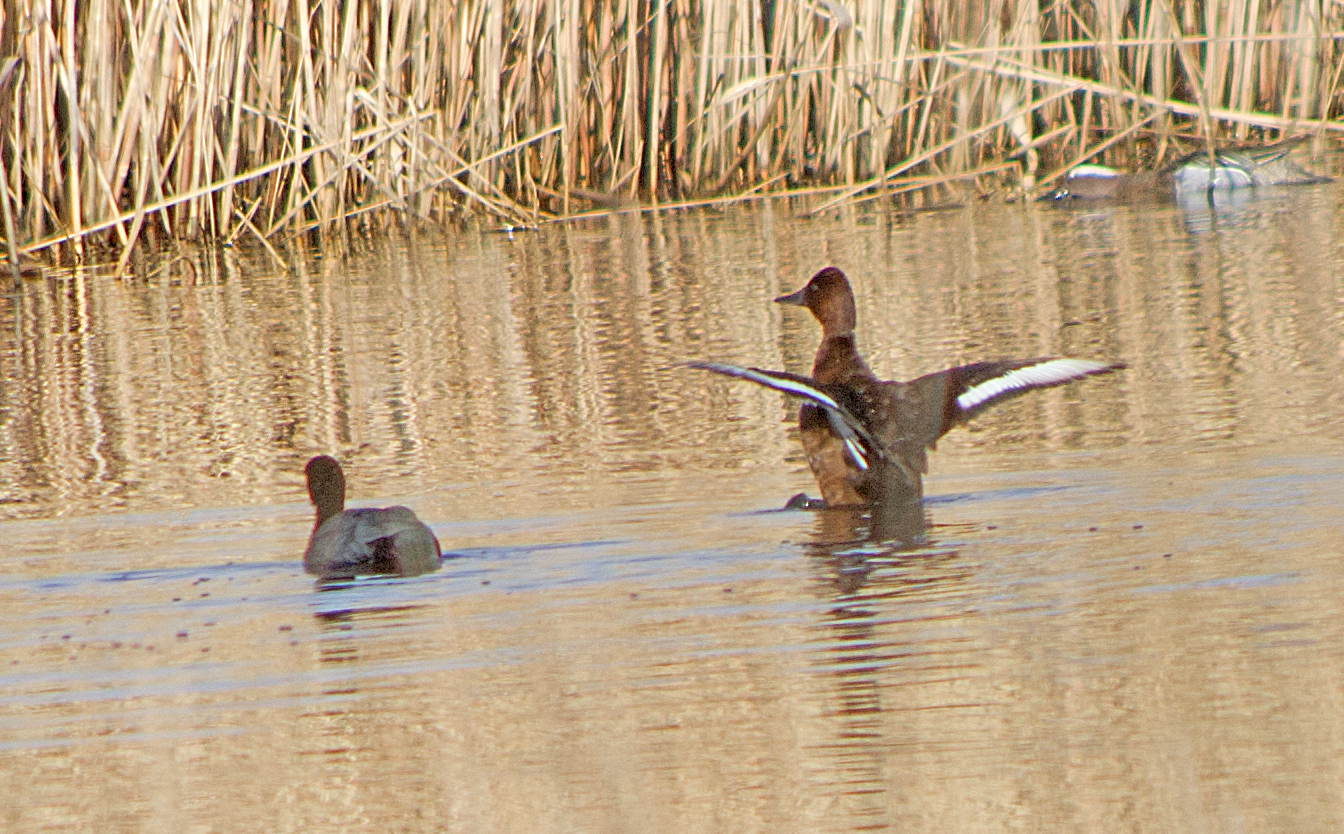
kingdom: Animalia
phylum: Chordata
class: Aves
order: Anseriformes
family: Anatidae
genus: Aythya
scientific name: Aythya nyroca
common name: Ferruginous duck
